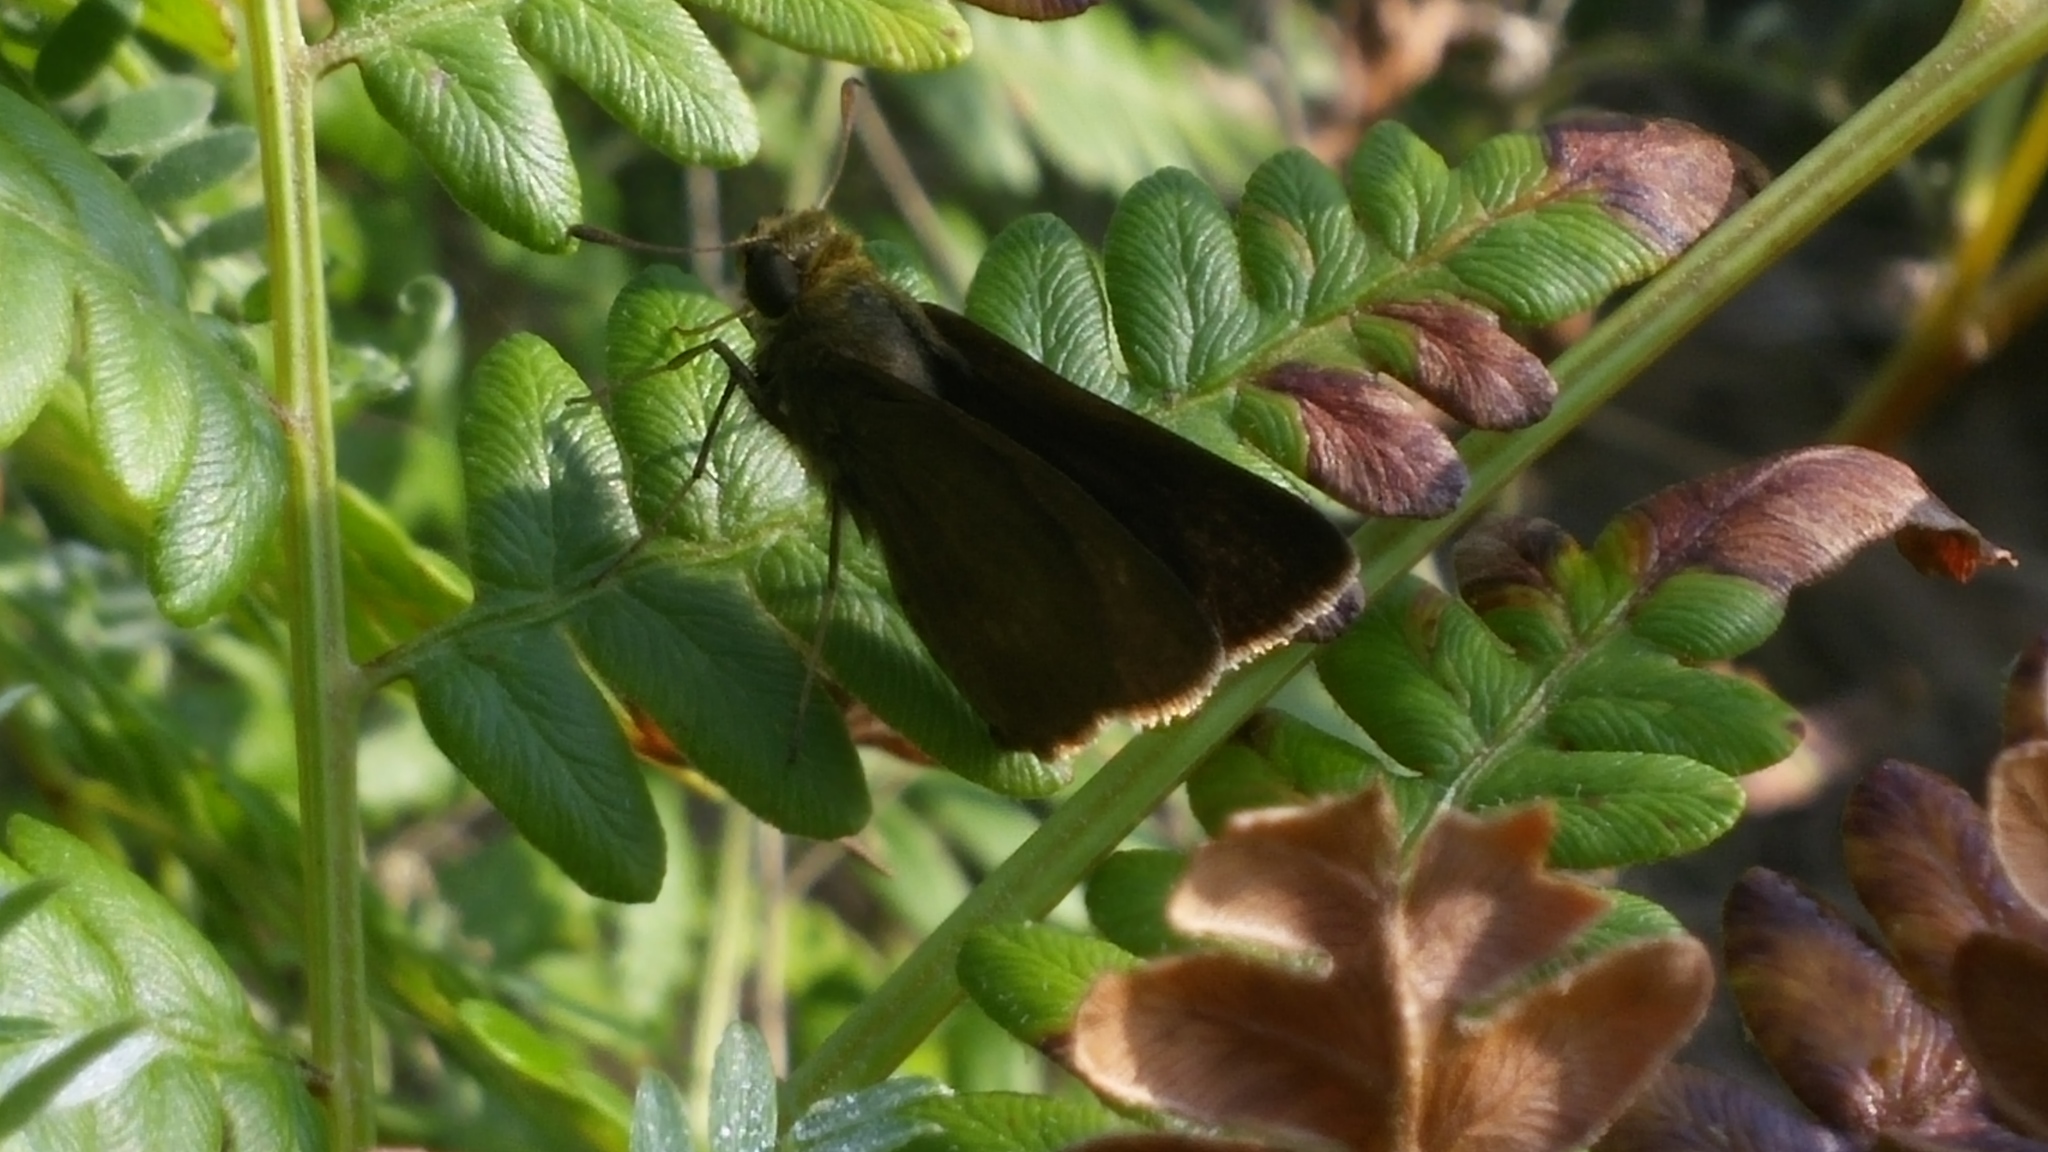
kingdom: Animalia
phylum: Arthropoda
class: Insecta
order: Lepidoptera
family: Hesperiidae
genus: Euphyes
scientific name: Euphyes vestris
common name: Dun skipper
